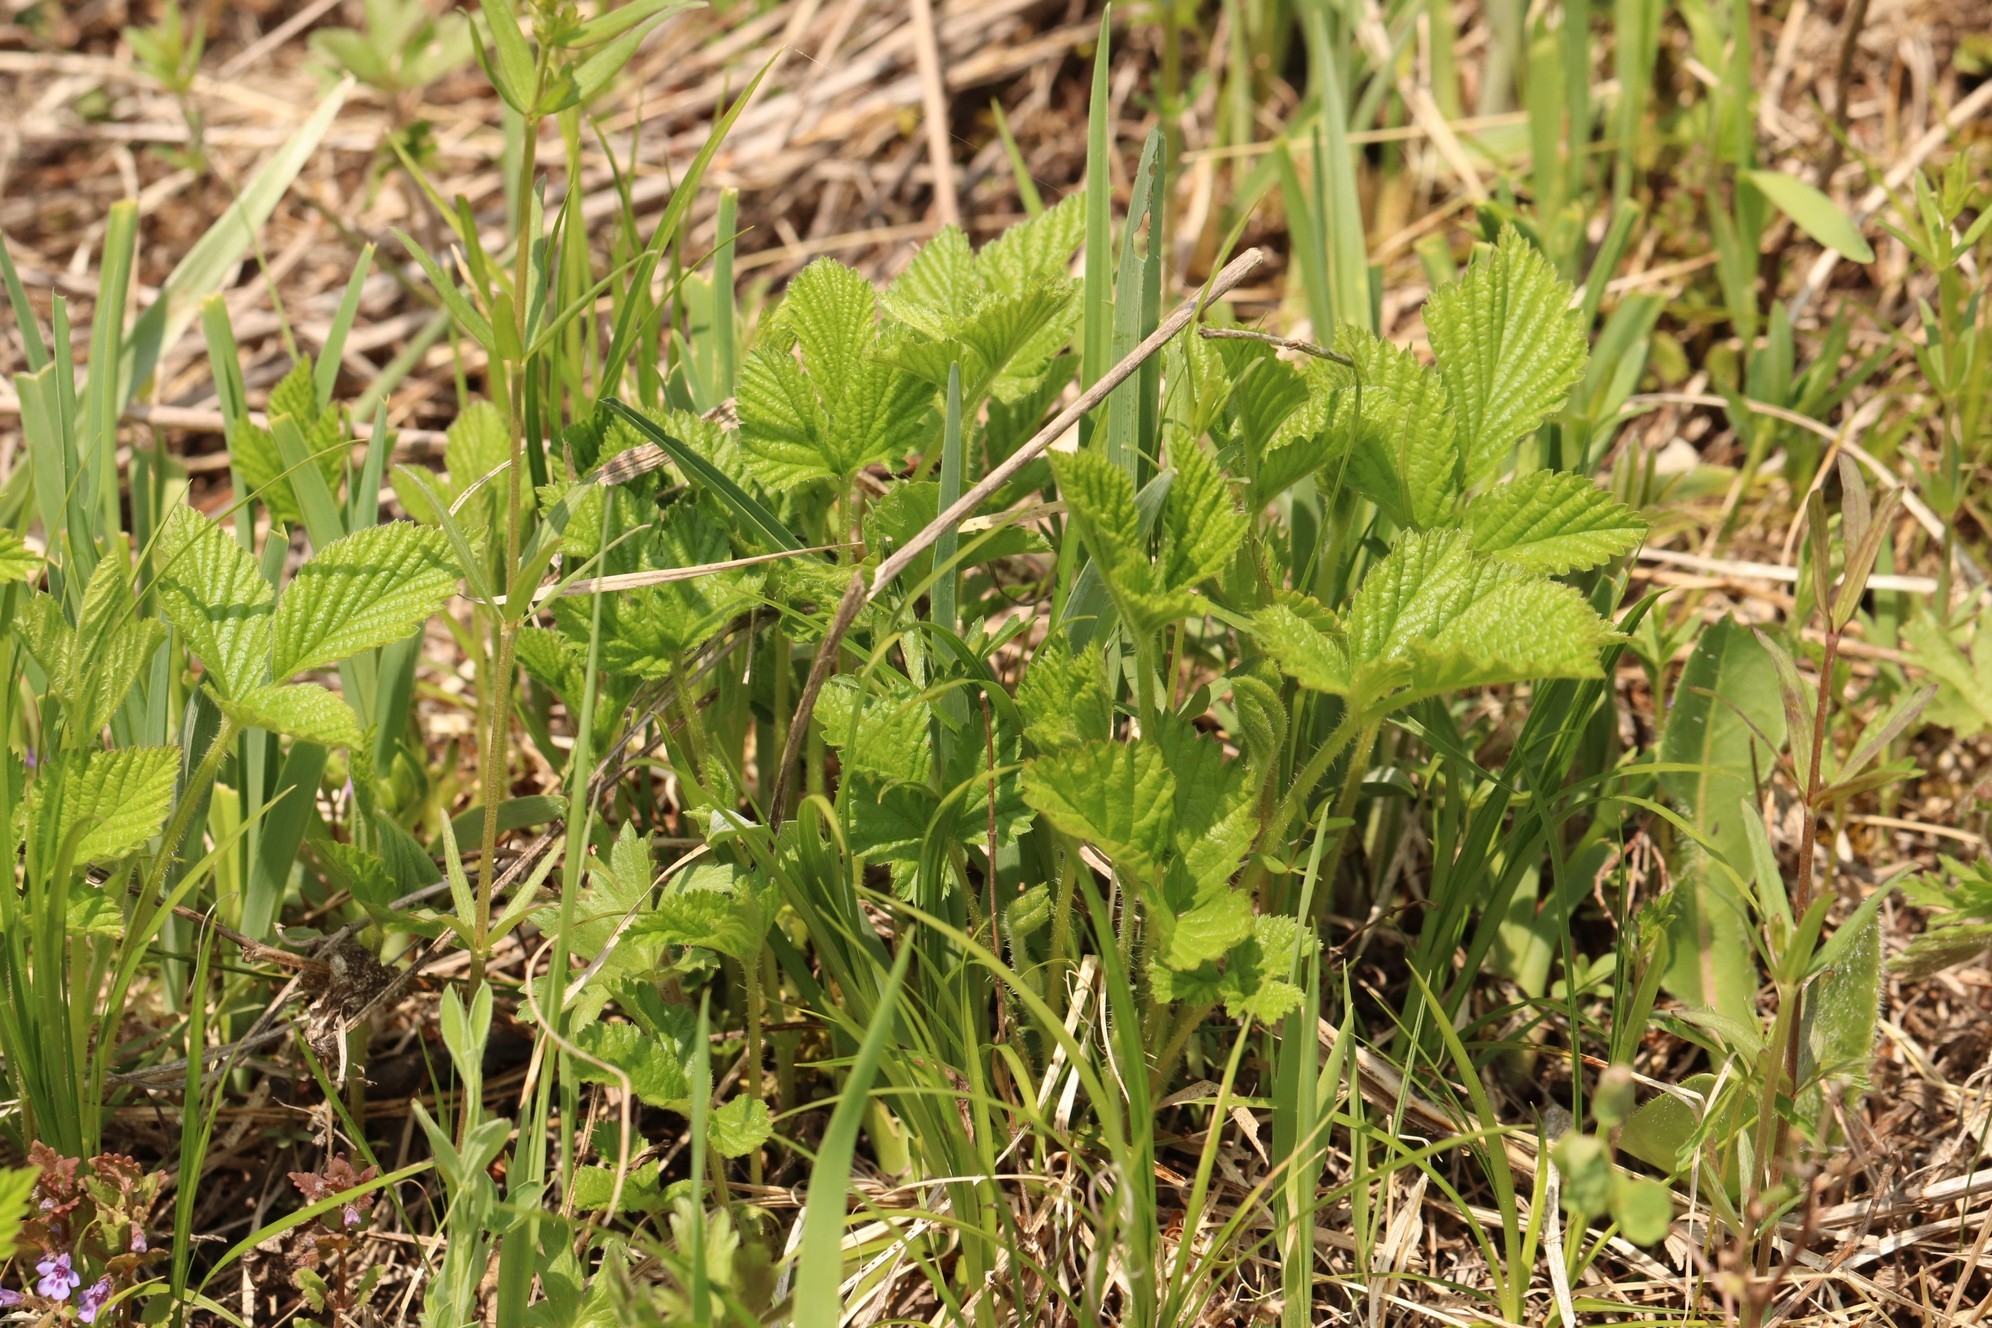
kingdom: Plantae
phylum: Tracheophyta
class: Magnoliopsida
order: Rosales
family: Rosaceae
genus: Rubus
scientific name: Rubus saxatilis
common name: Stone bramble
